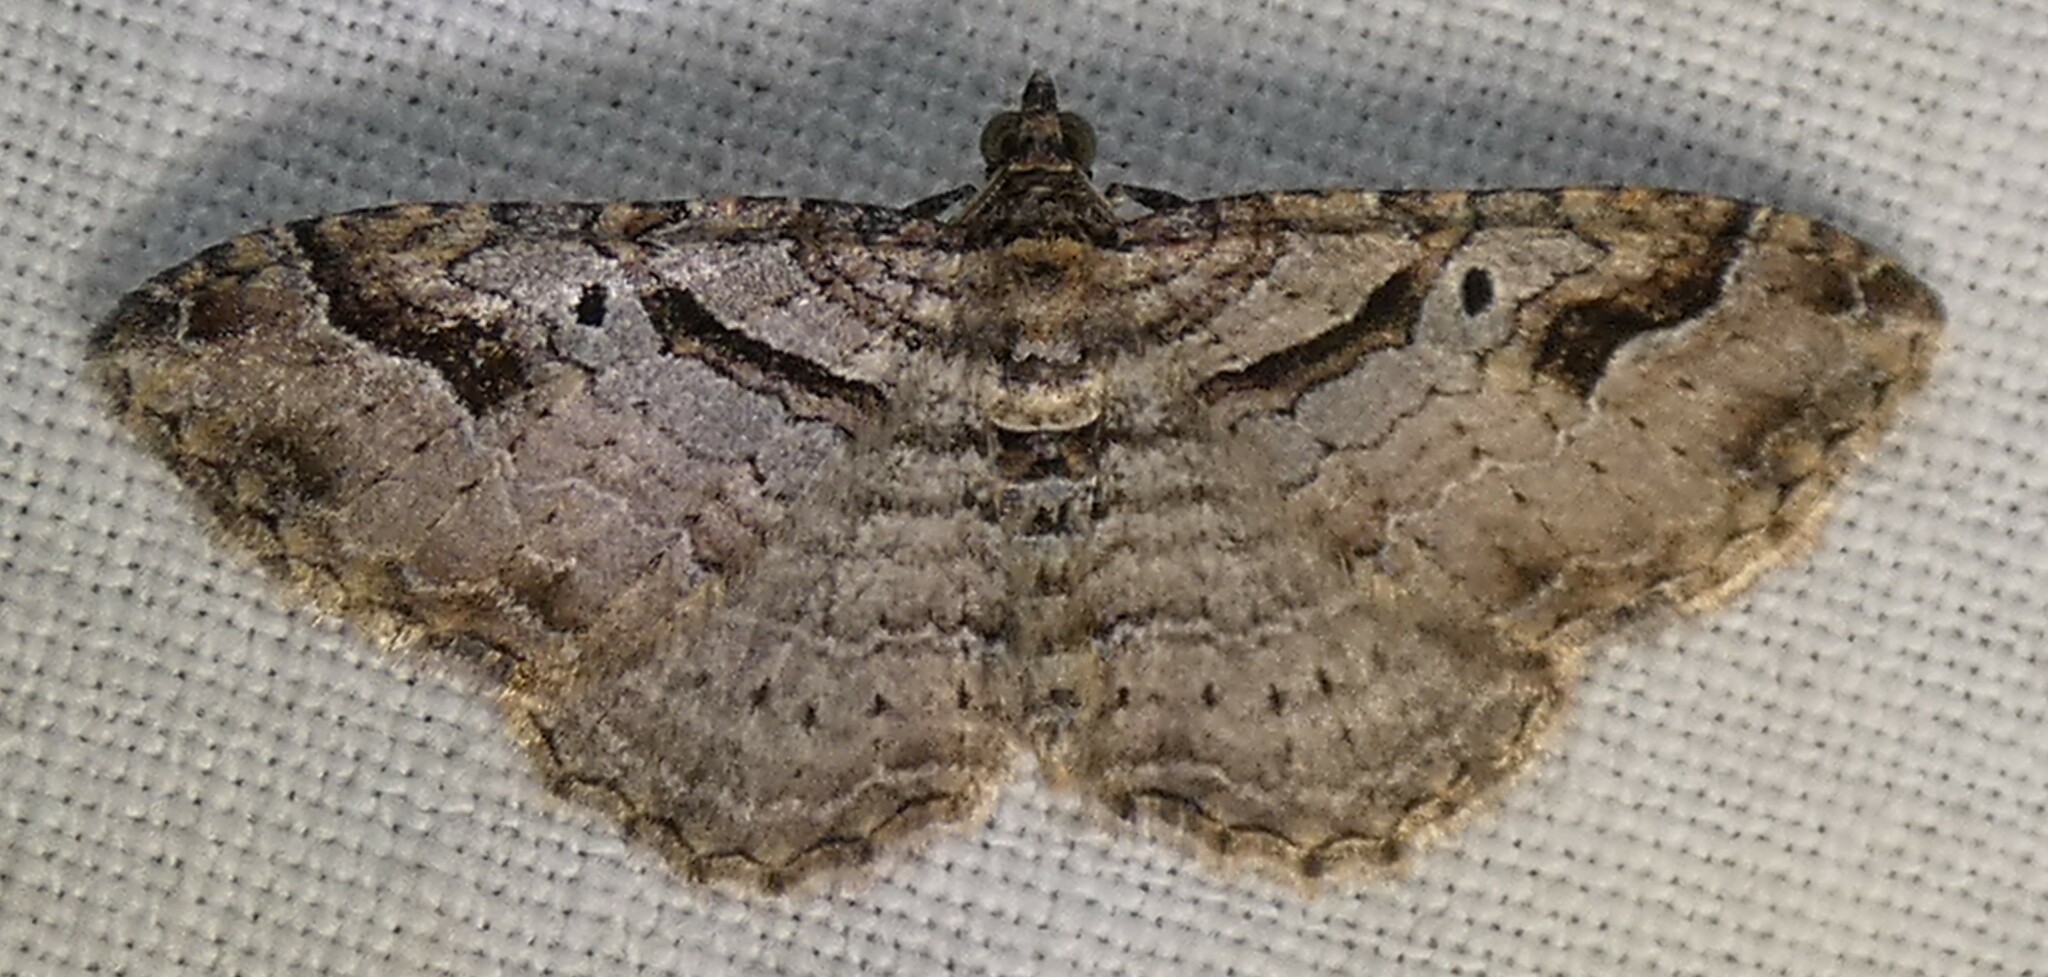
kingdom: Animalia
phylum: Arthropoda
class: Insecta
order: Lepidoptera
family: Geometridae
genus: Costaconvexa
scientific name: Costaconvexa centrostrigaria
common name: Bent-line carpet
